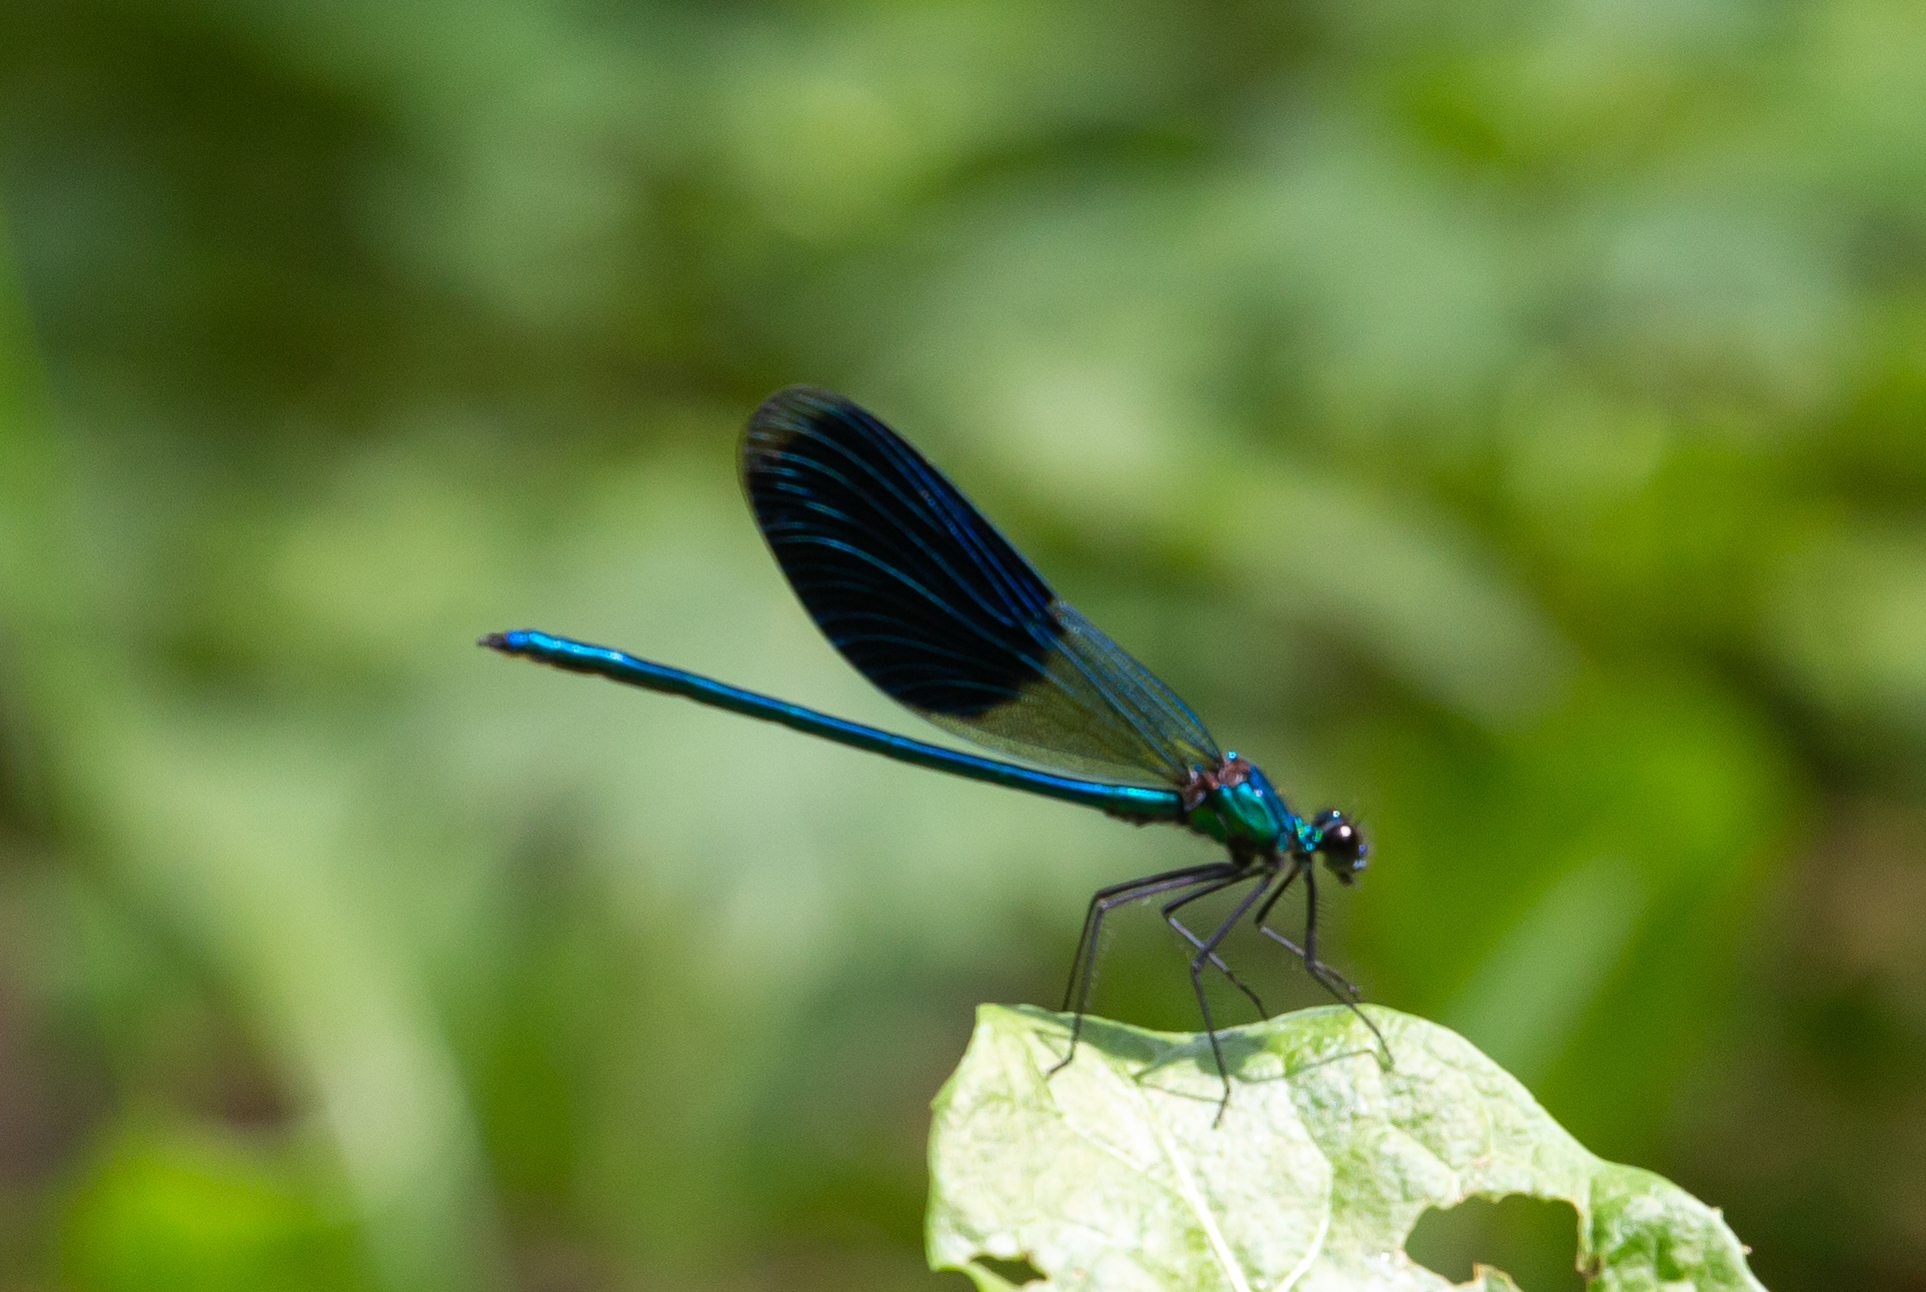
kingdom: Animalia
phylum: Arthropoda
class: Insecta
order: Odonata
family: Calopterygidae
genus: Calopteryx
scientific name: Calopteryx splendens
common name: Banded demoiselle
